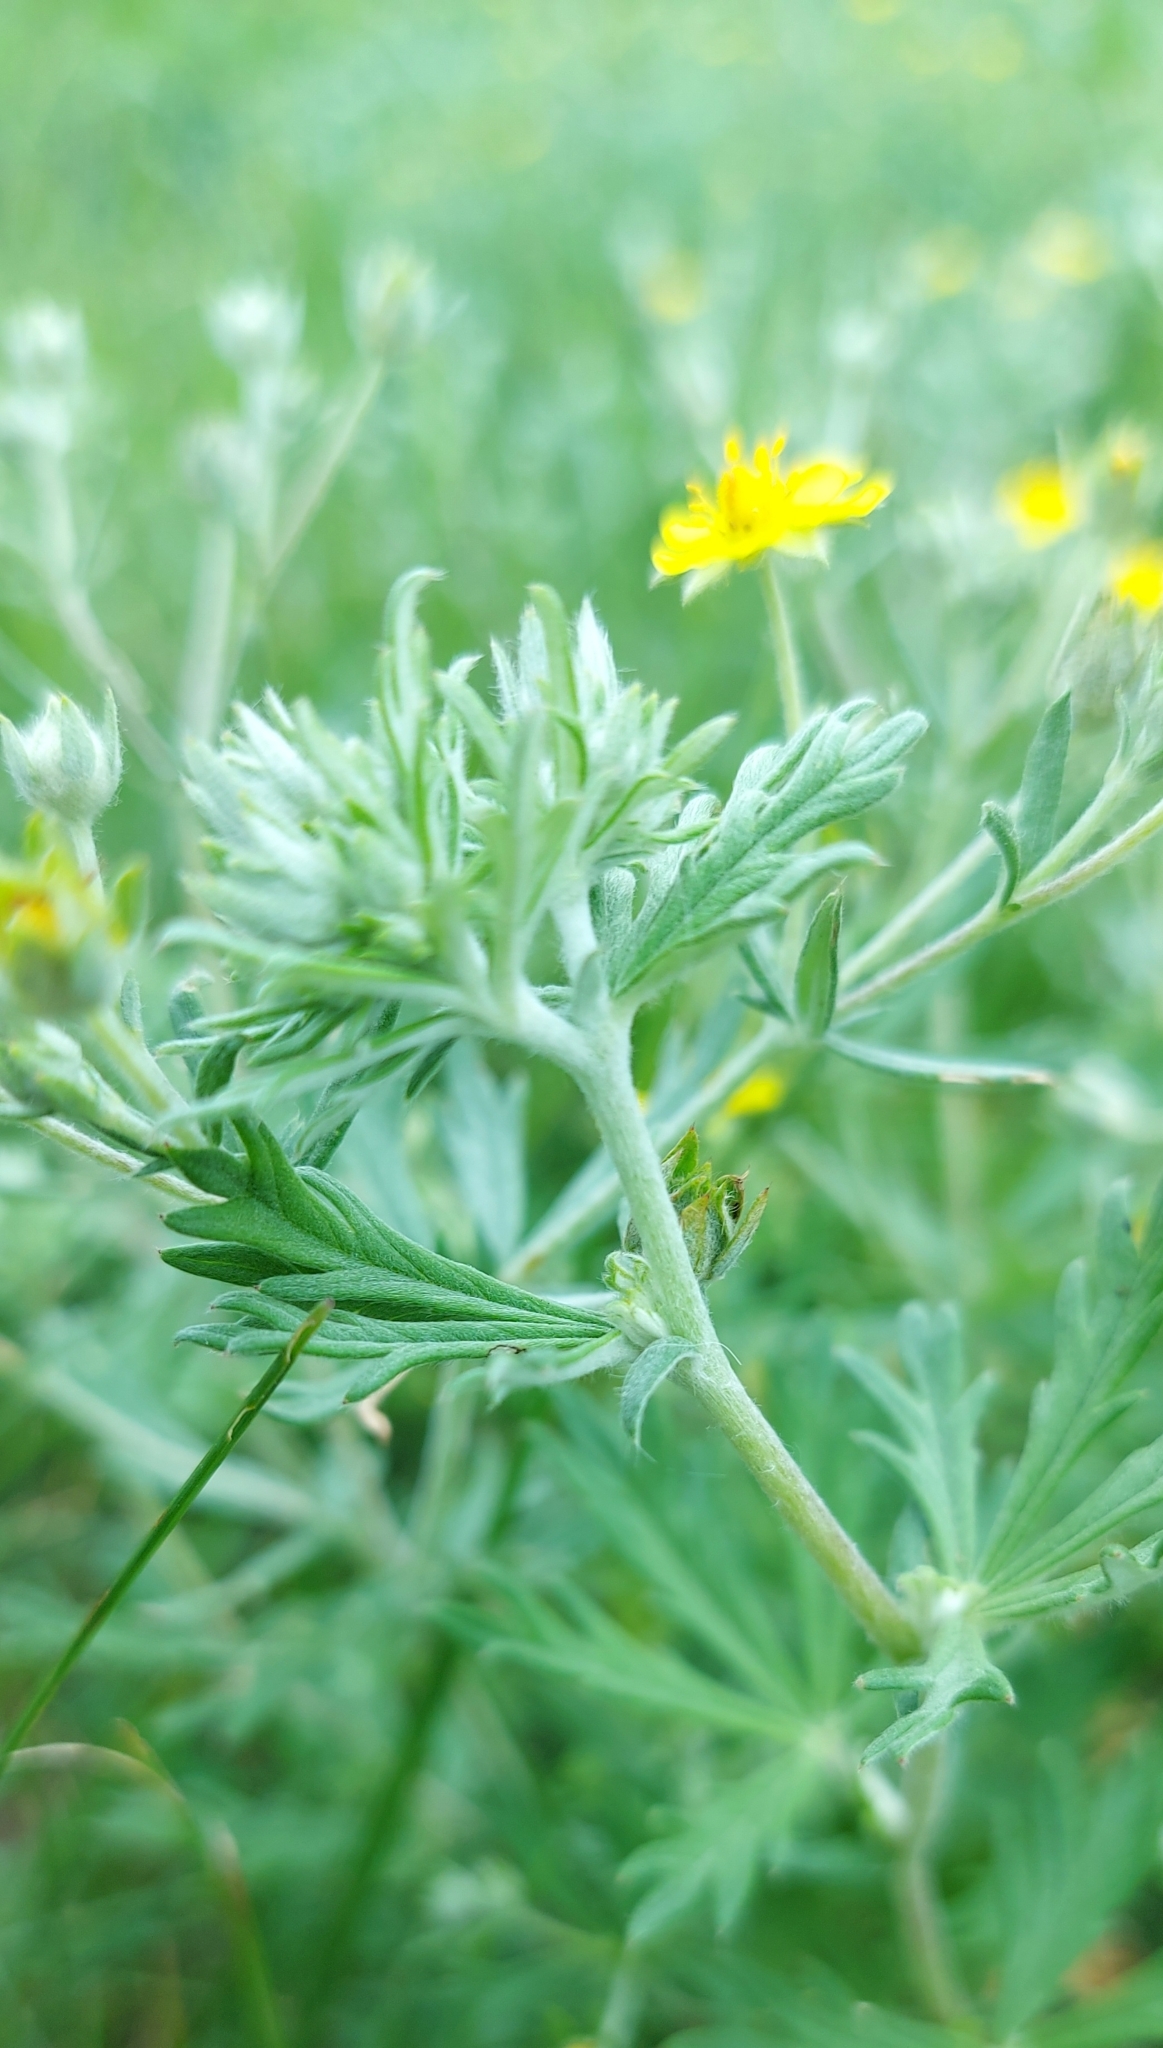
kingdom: Plantae
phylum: Tracheophyta
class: Magnoliopsida
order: Rosales
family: Rosaceae
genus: Potentilla
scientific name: Potentilla argentea
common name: Hoary cinquefoil
